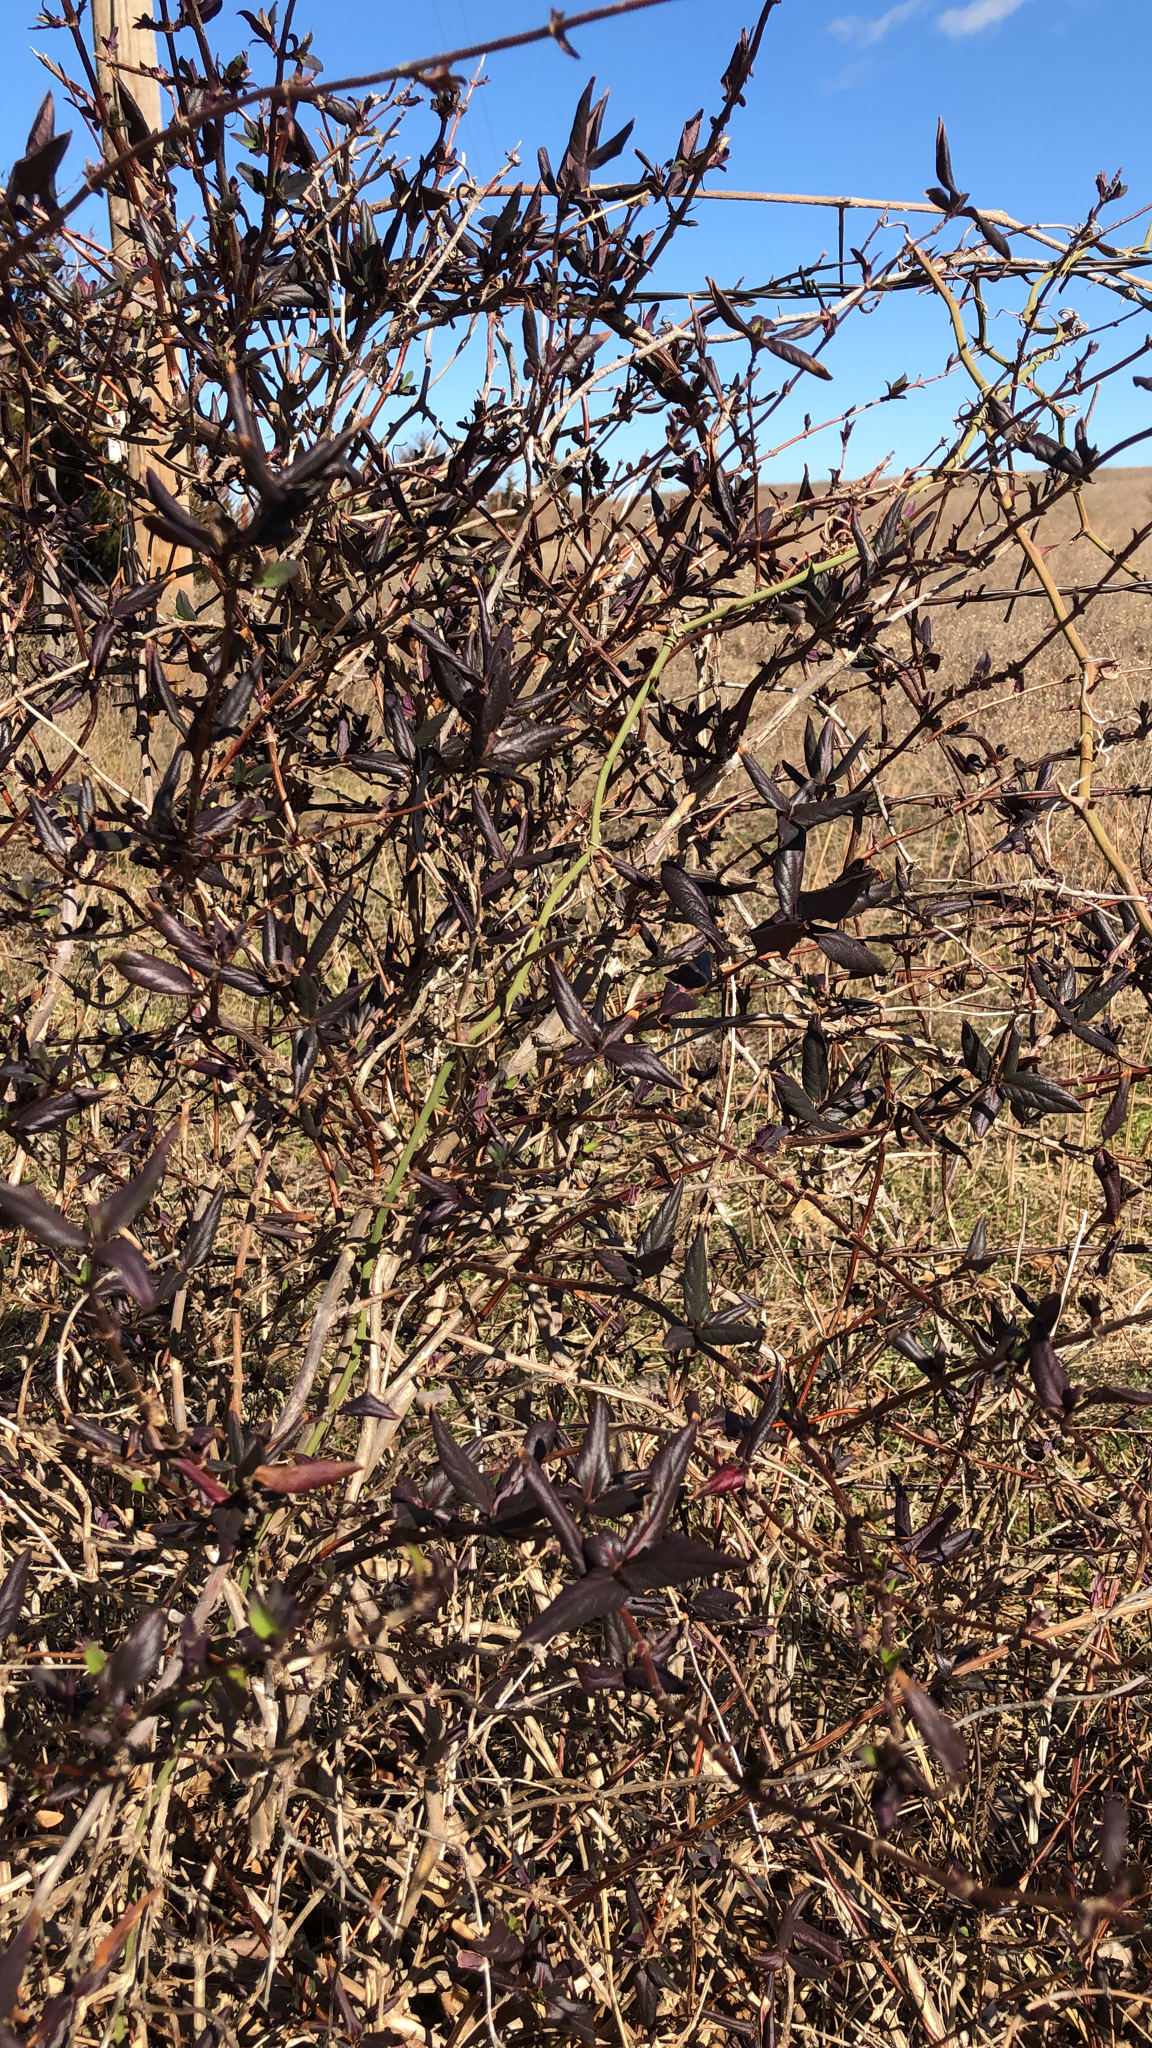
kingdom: Plantae
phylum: Tracheophyta
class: Magnoliopsida
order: Dipsacales
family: Caprifoliaceae
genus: Lonicera
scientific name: Lonicera japonica
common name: Japanese honeysuckle
